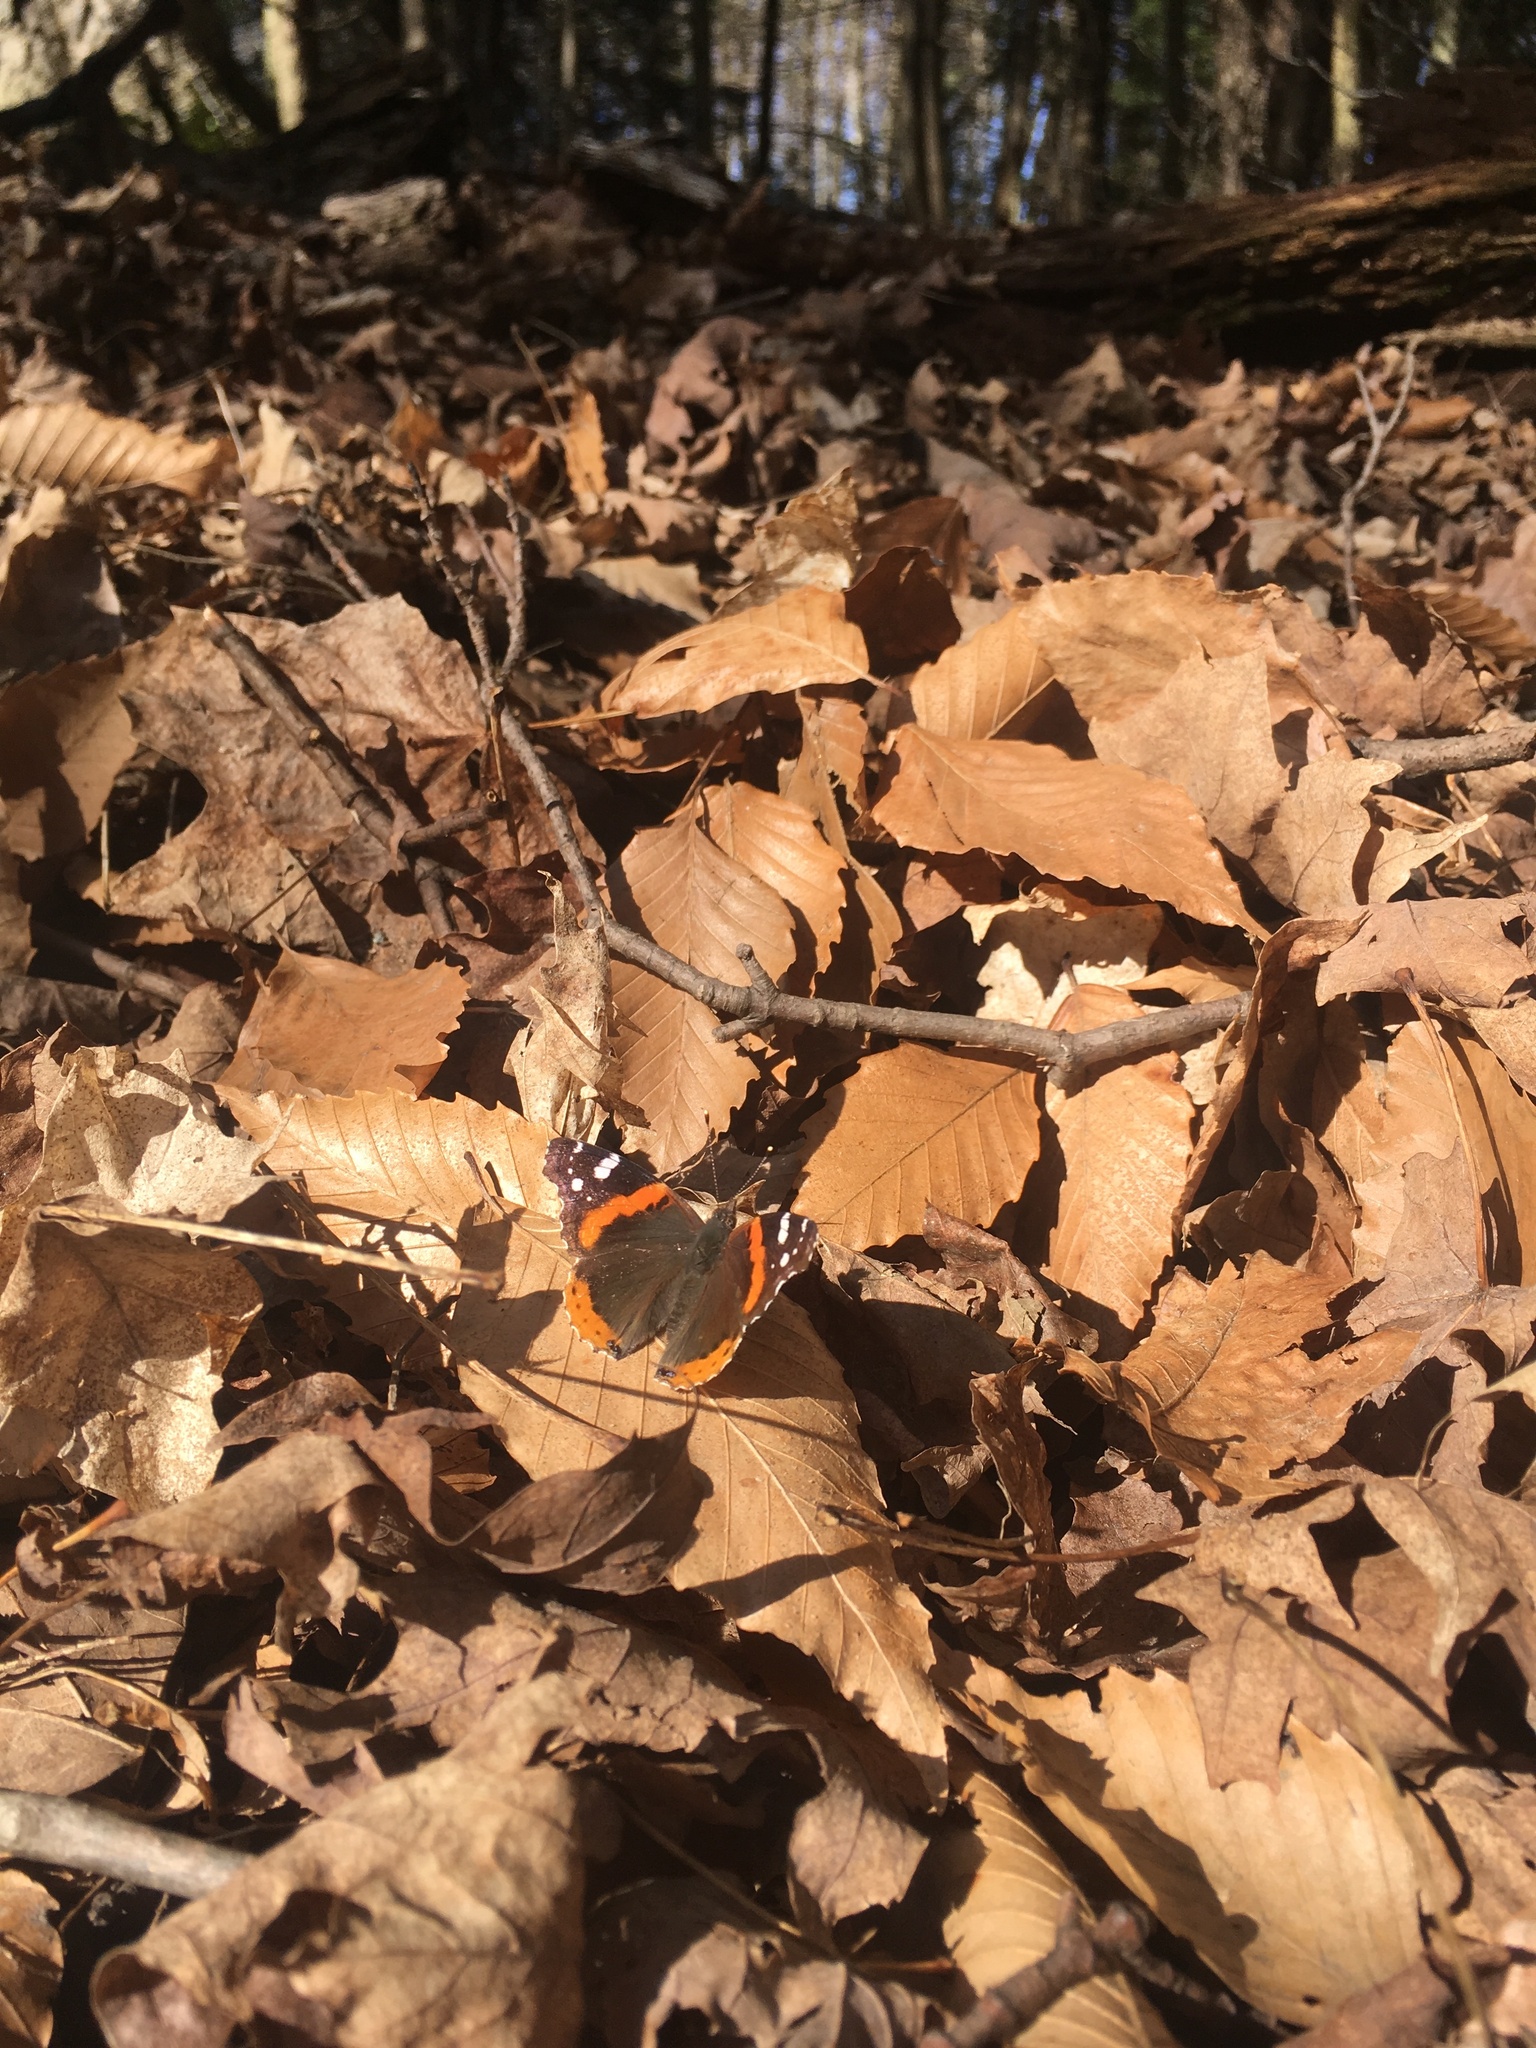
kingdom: Animalia
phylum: Arthropoda
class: Insecta
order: Lepidoptera
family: Nymphalidae
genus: Vanessa
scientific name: Vanessa atalanta
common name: Red admiral
